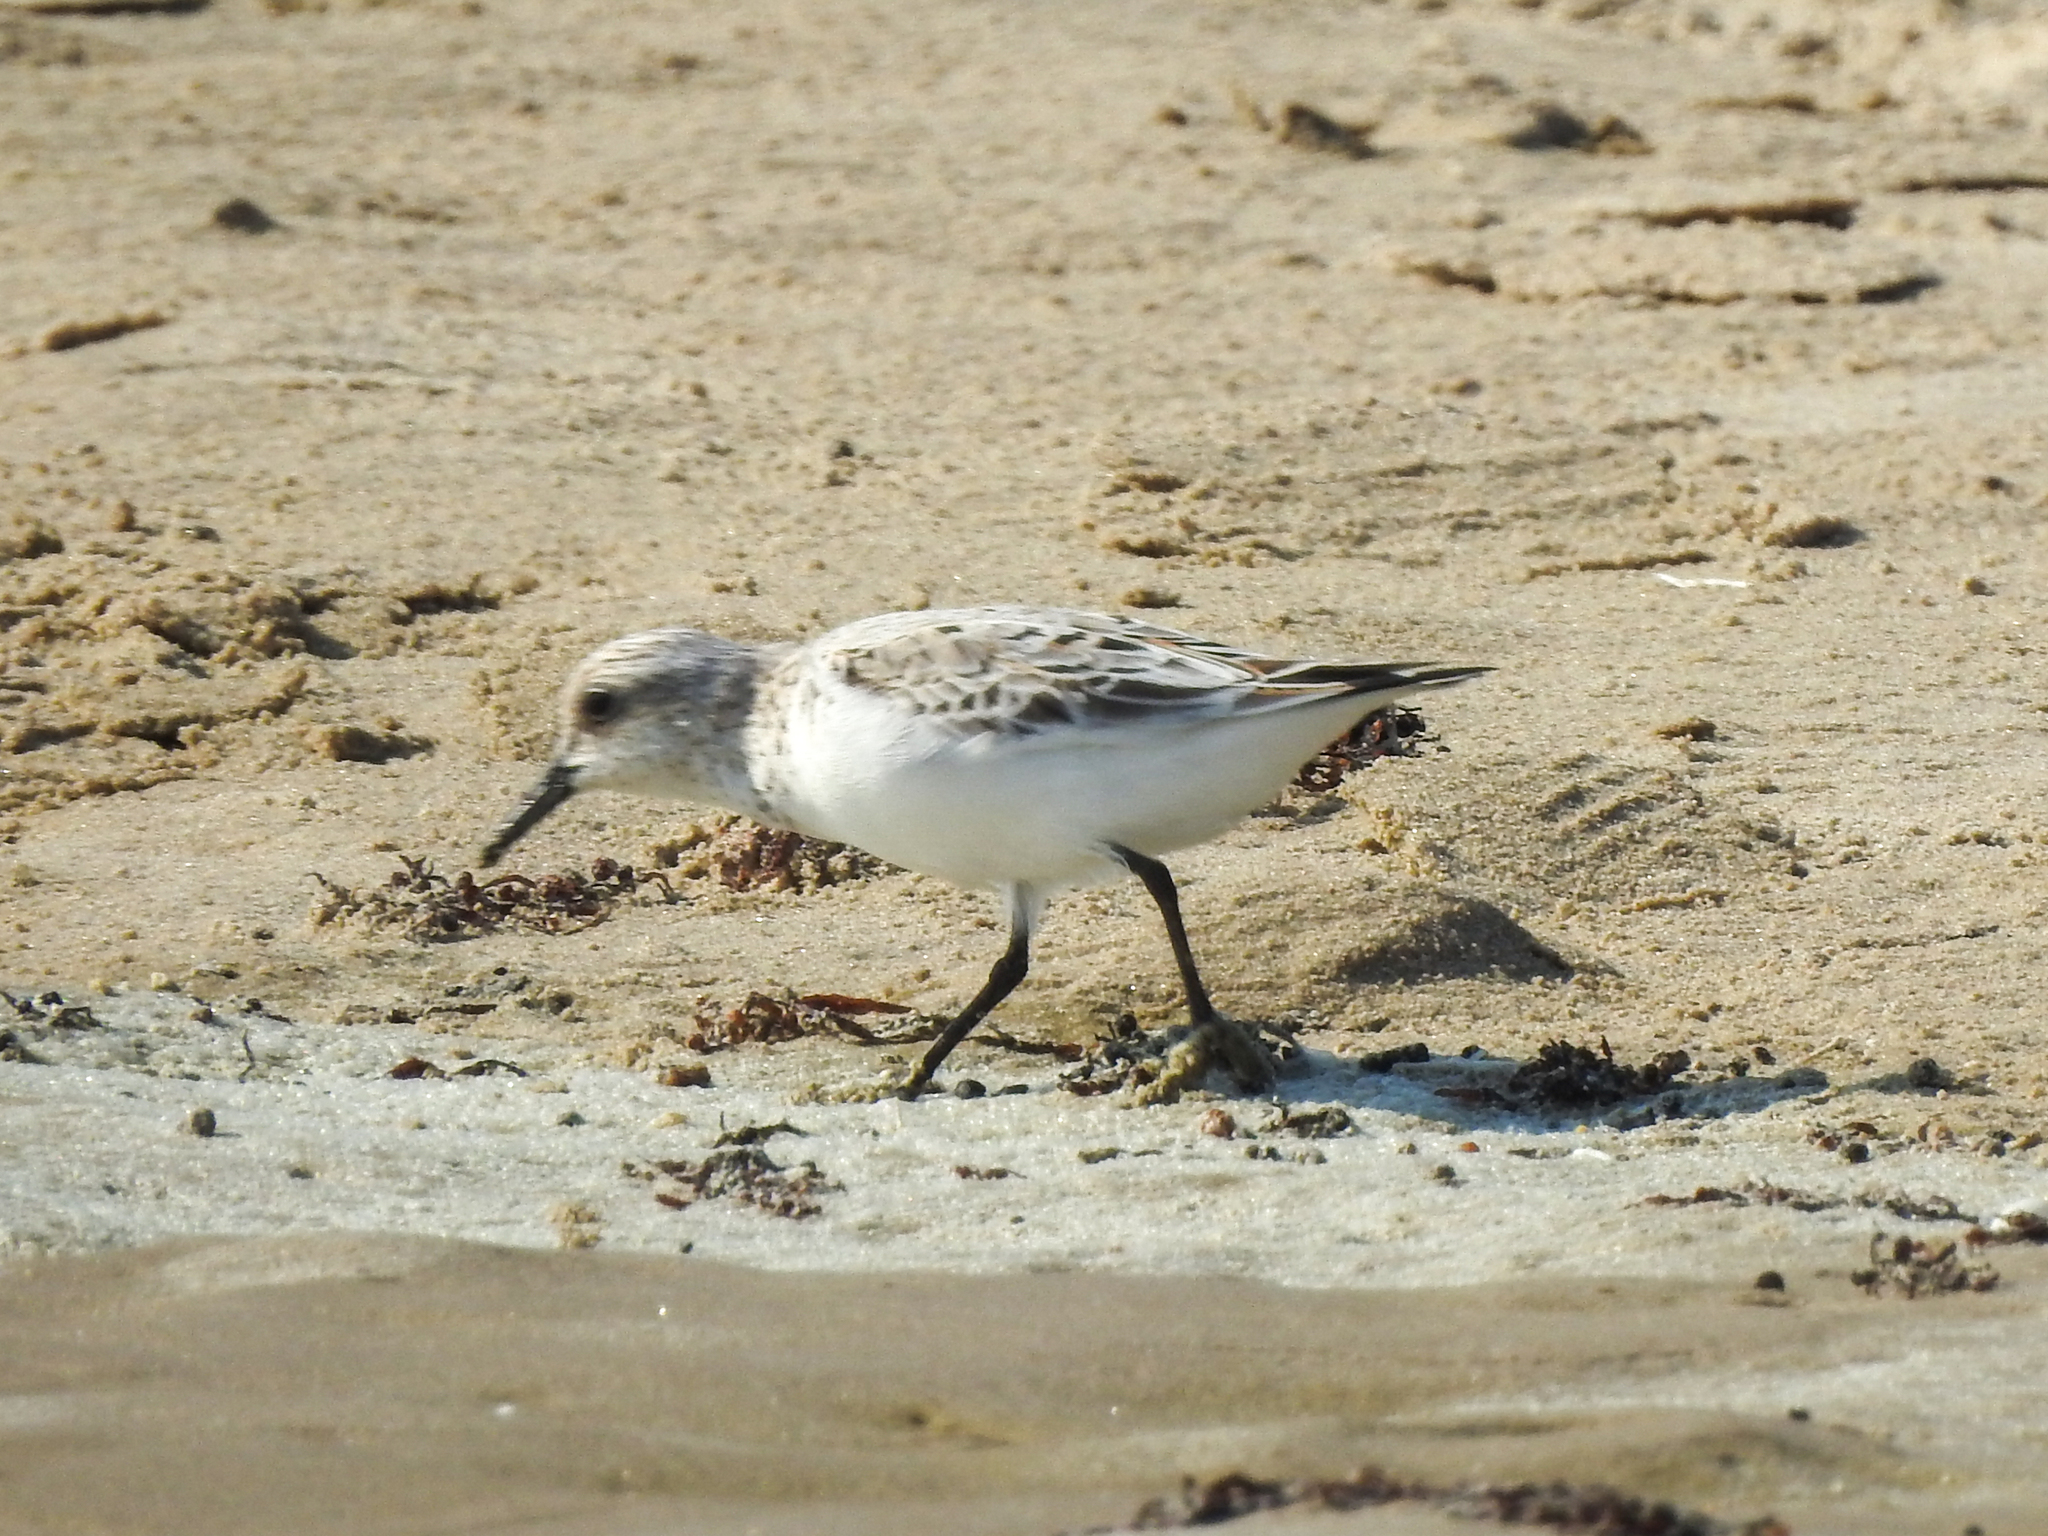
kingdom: Animalia
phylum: Chordata
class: Aves
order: Charadriiformes
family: Scolopacidae
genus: Calidris
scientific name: Calidris alba
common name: Sanderling
